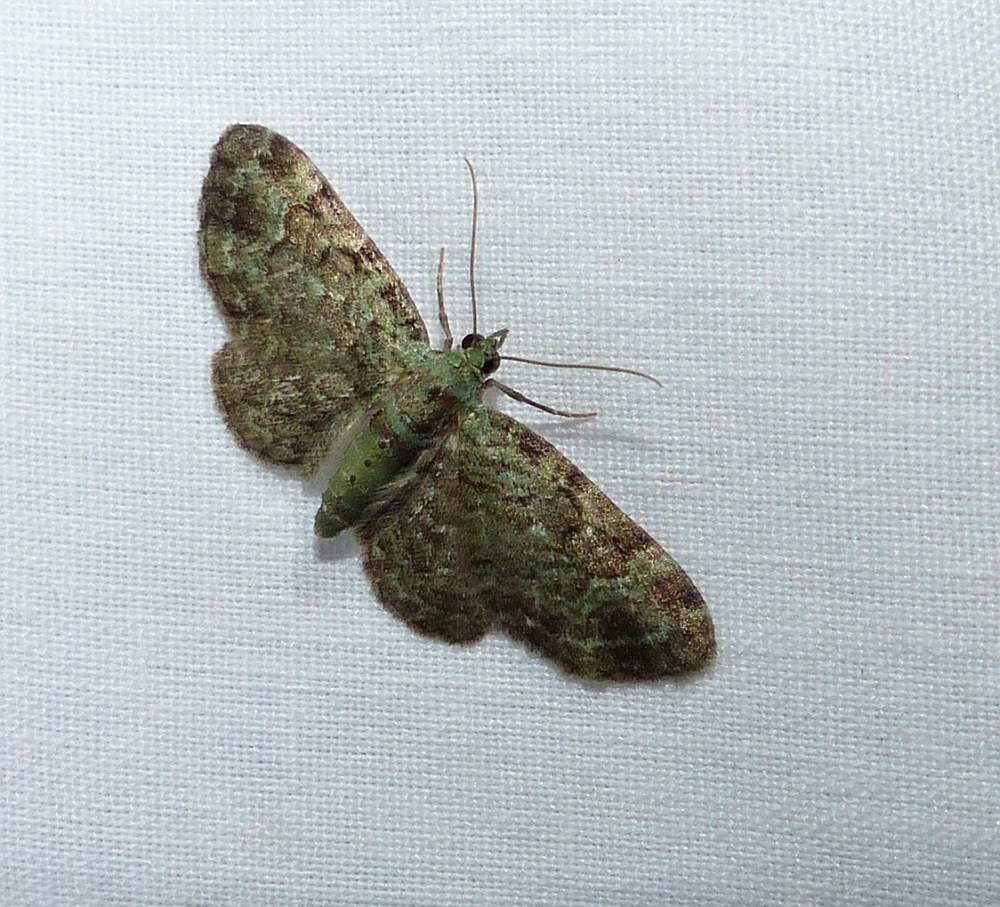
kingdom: Animalia
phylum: Arthropoda
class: Insecta
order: Lepidoptera
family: Geometridae
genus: Pasiphila
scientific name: Pasiphila rectangulata
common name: Green pug
